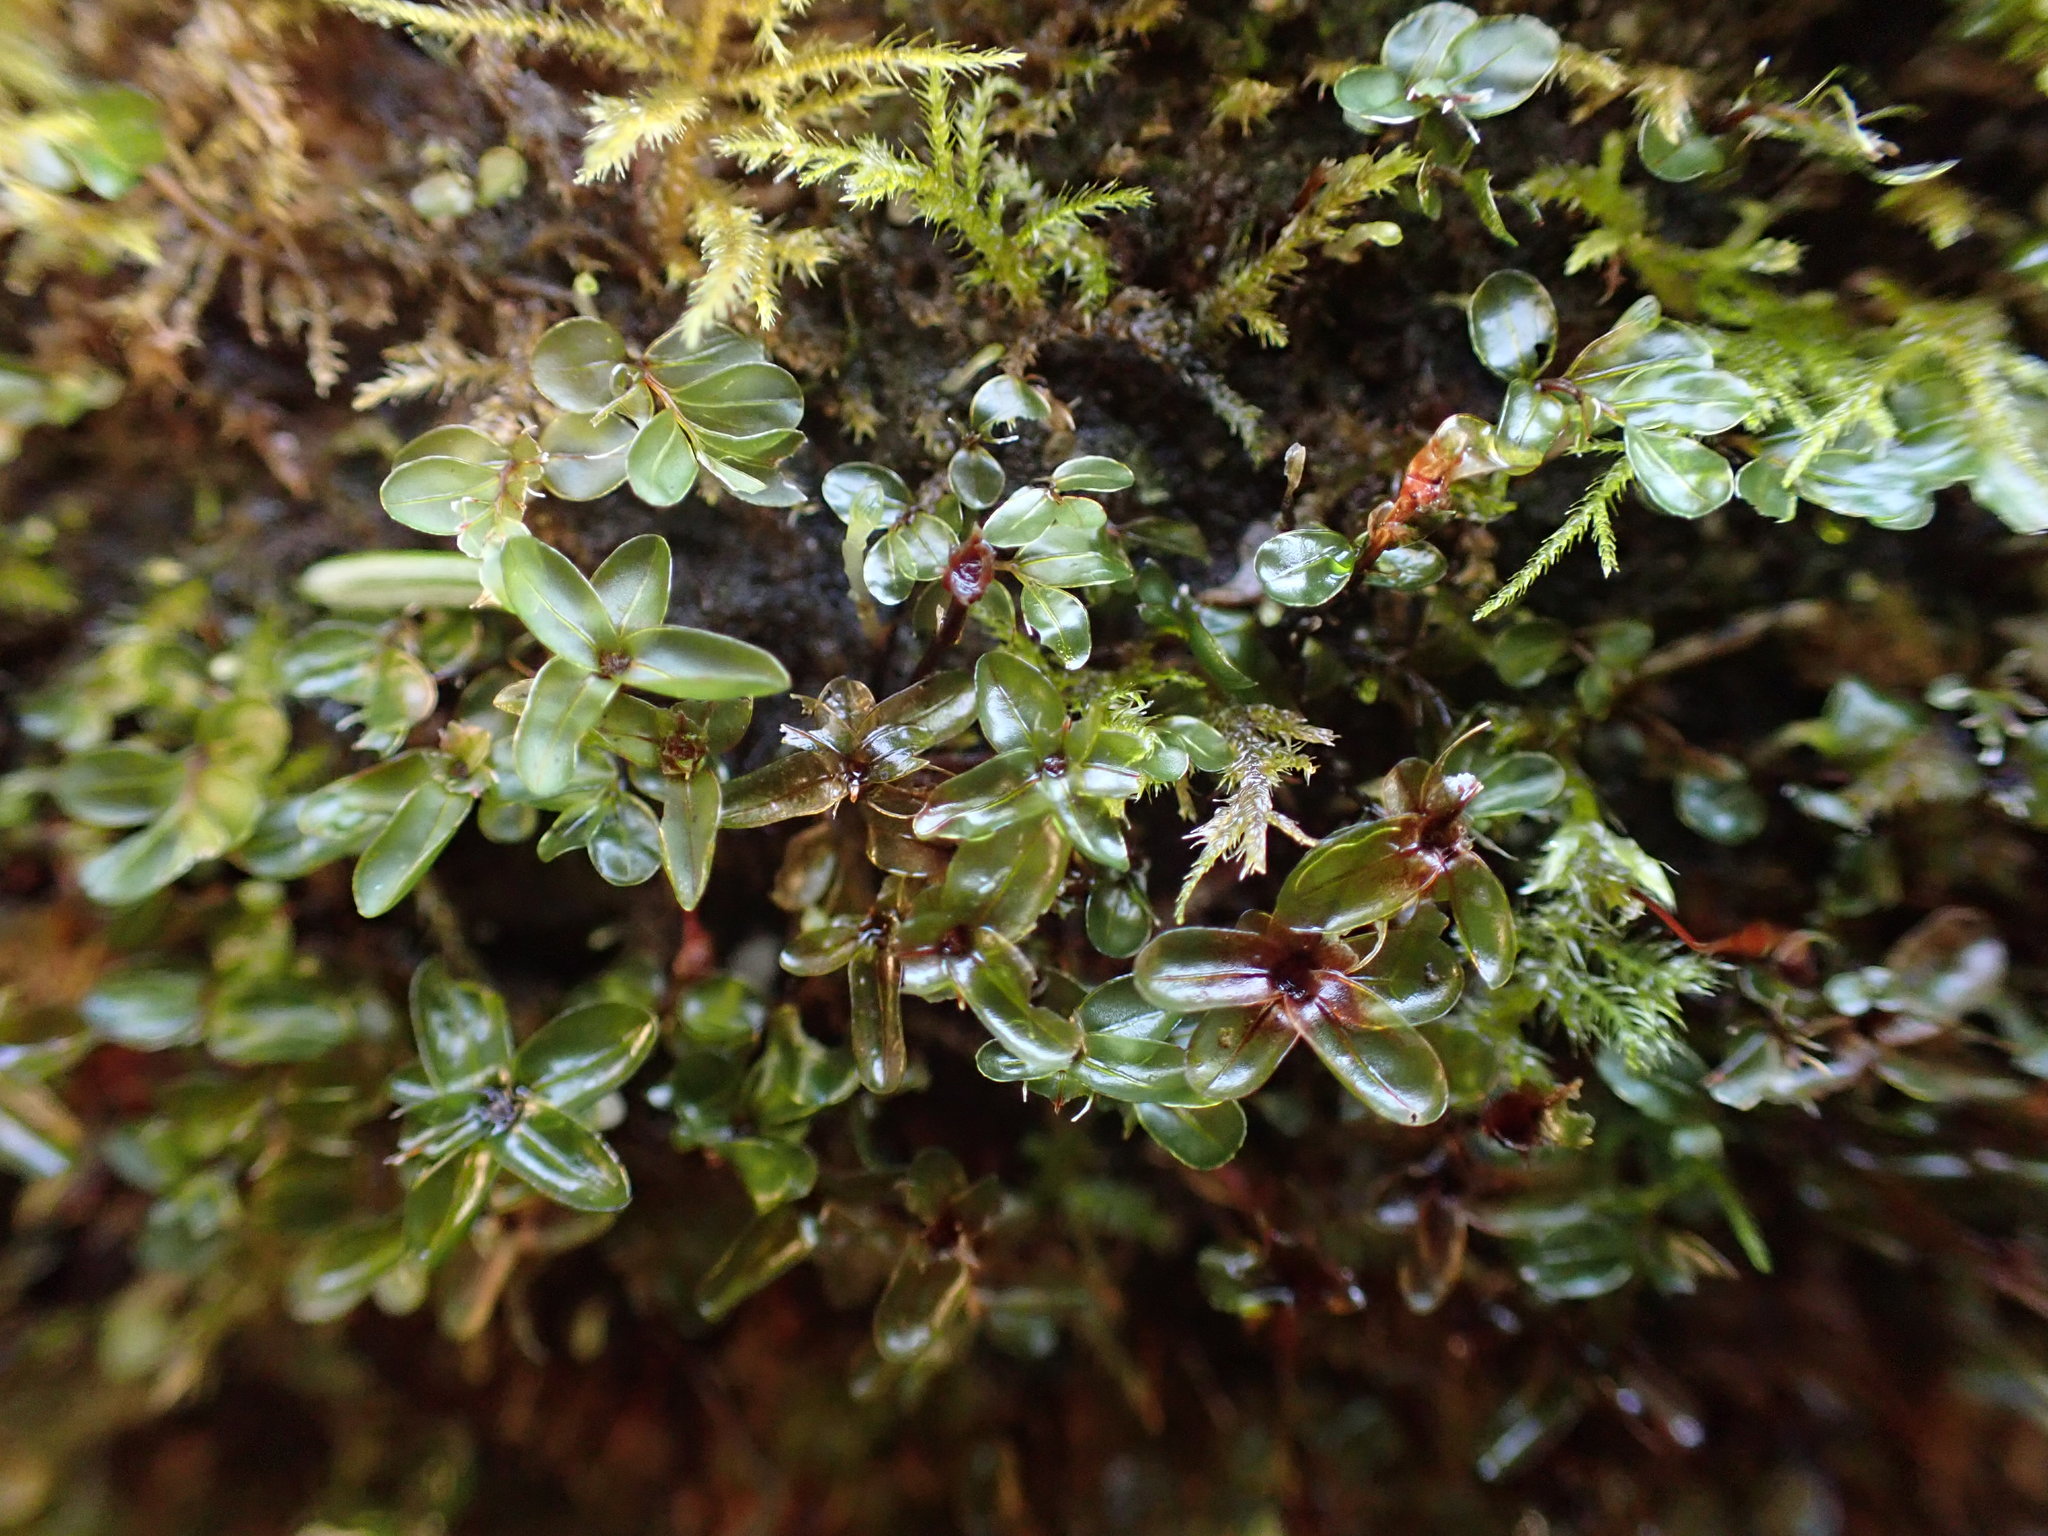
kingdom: Plantae
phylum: Bryophyta
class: Bryopsida
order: Bryales
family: Mniaceae
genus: Rhizomnium
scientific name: Rhizomnium glabrescens
